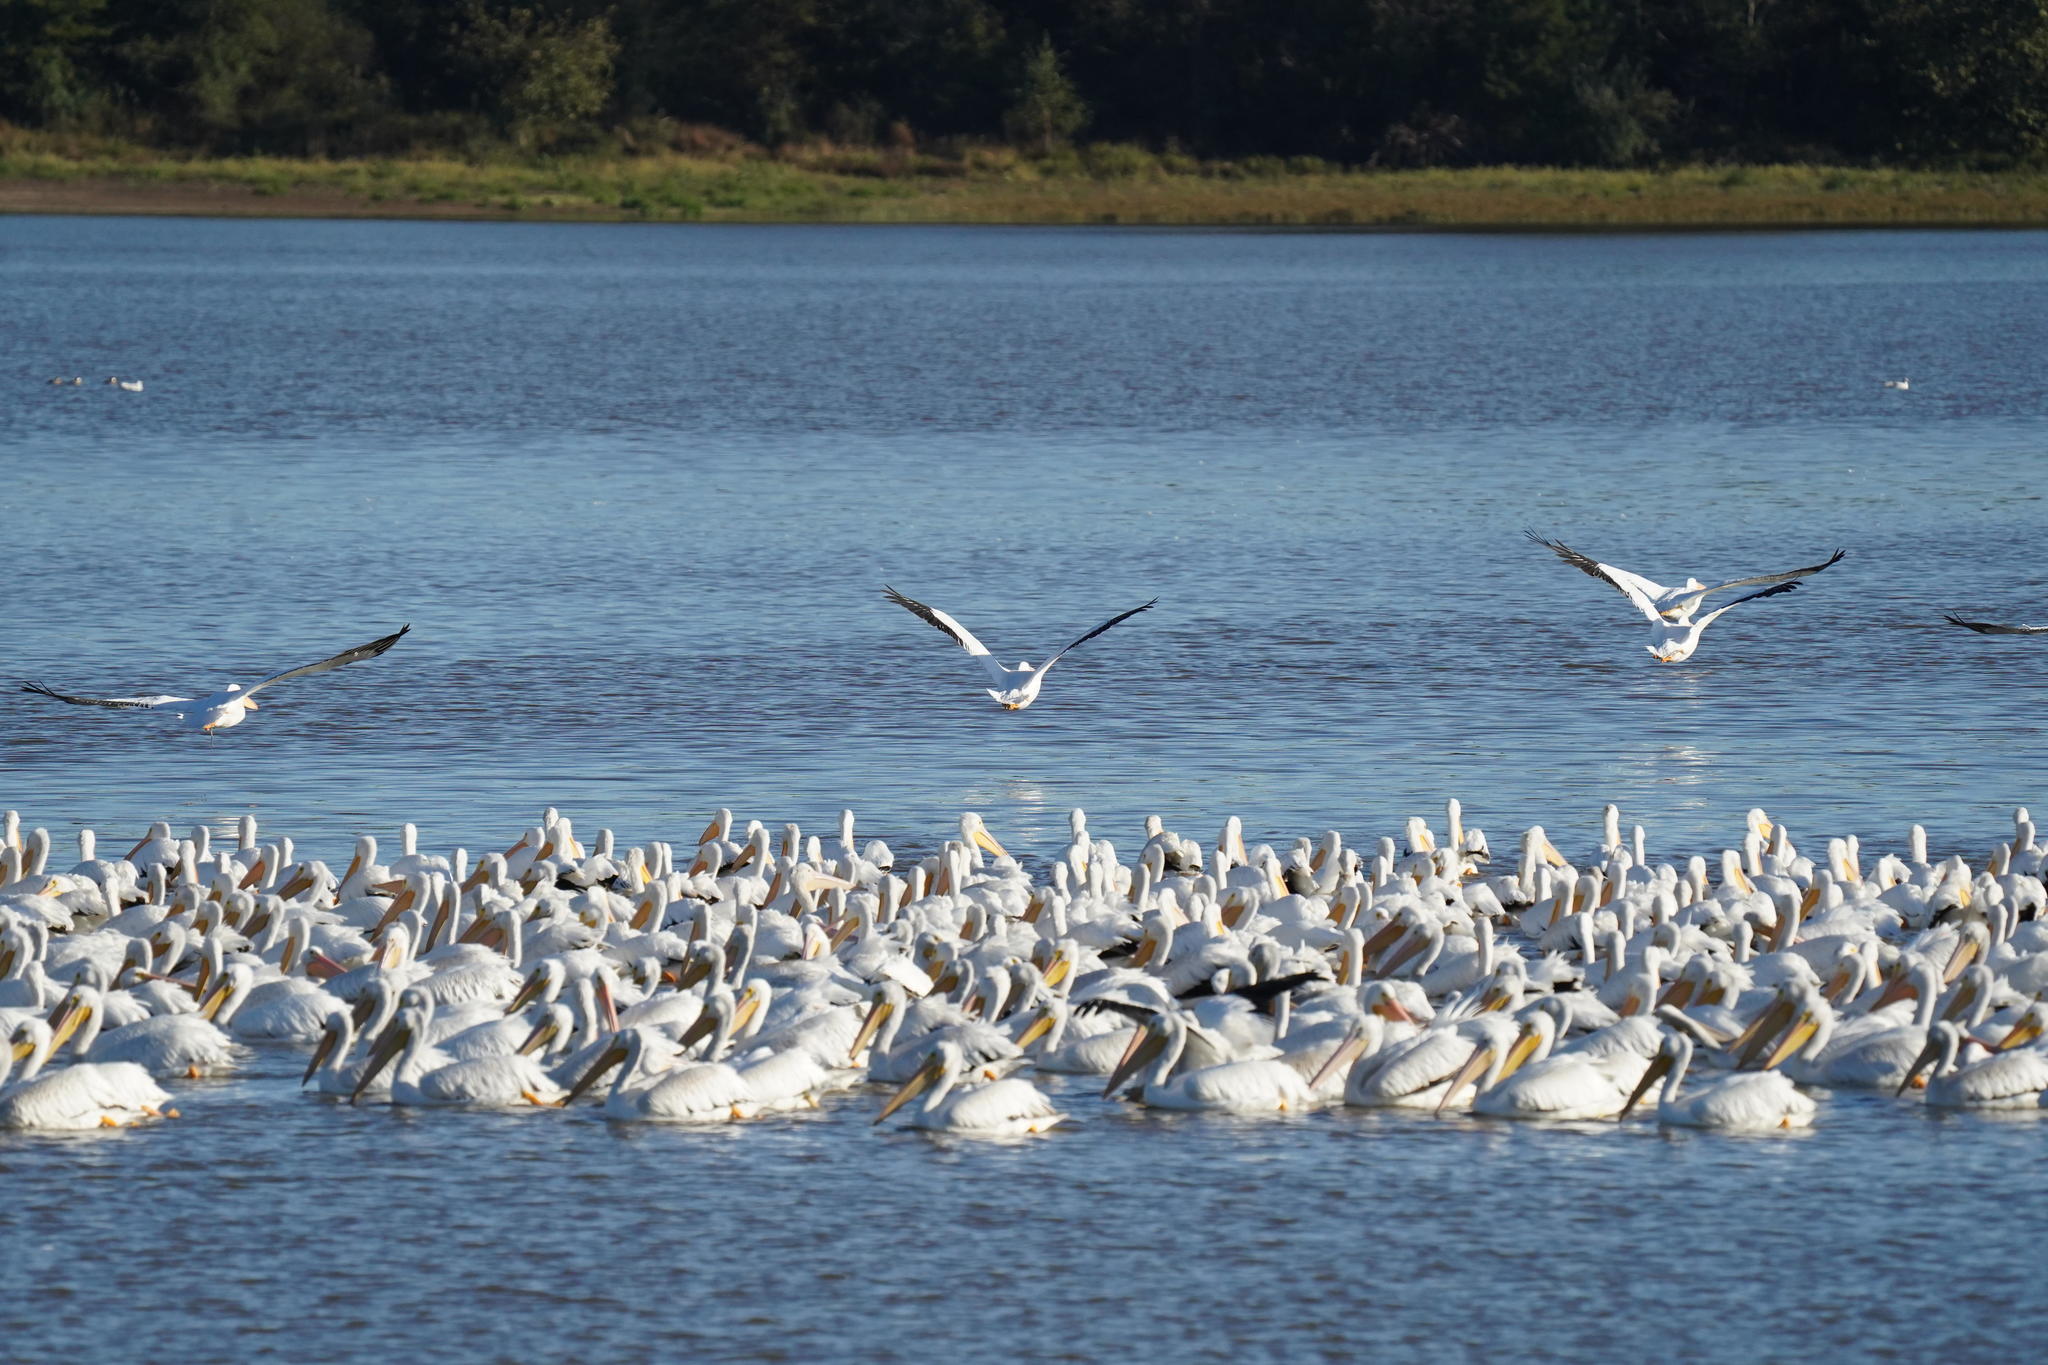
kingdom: Animalia
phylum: Chordata
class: Aves
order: Pelecaniformes
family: Pelecanidae
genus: Pelecanus
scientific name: Pelecanus erythrorhynchos
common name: American white pelican
